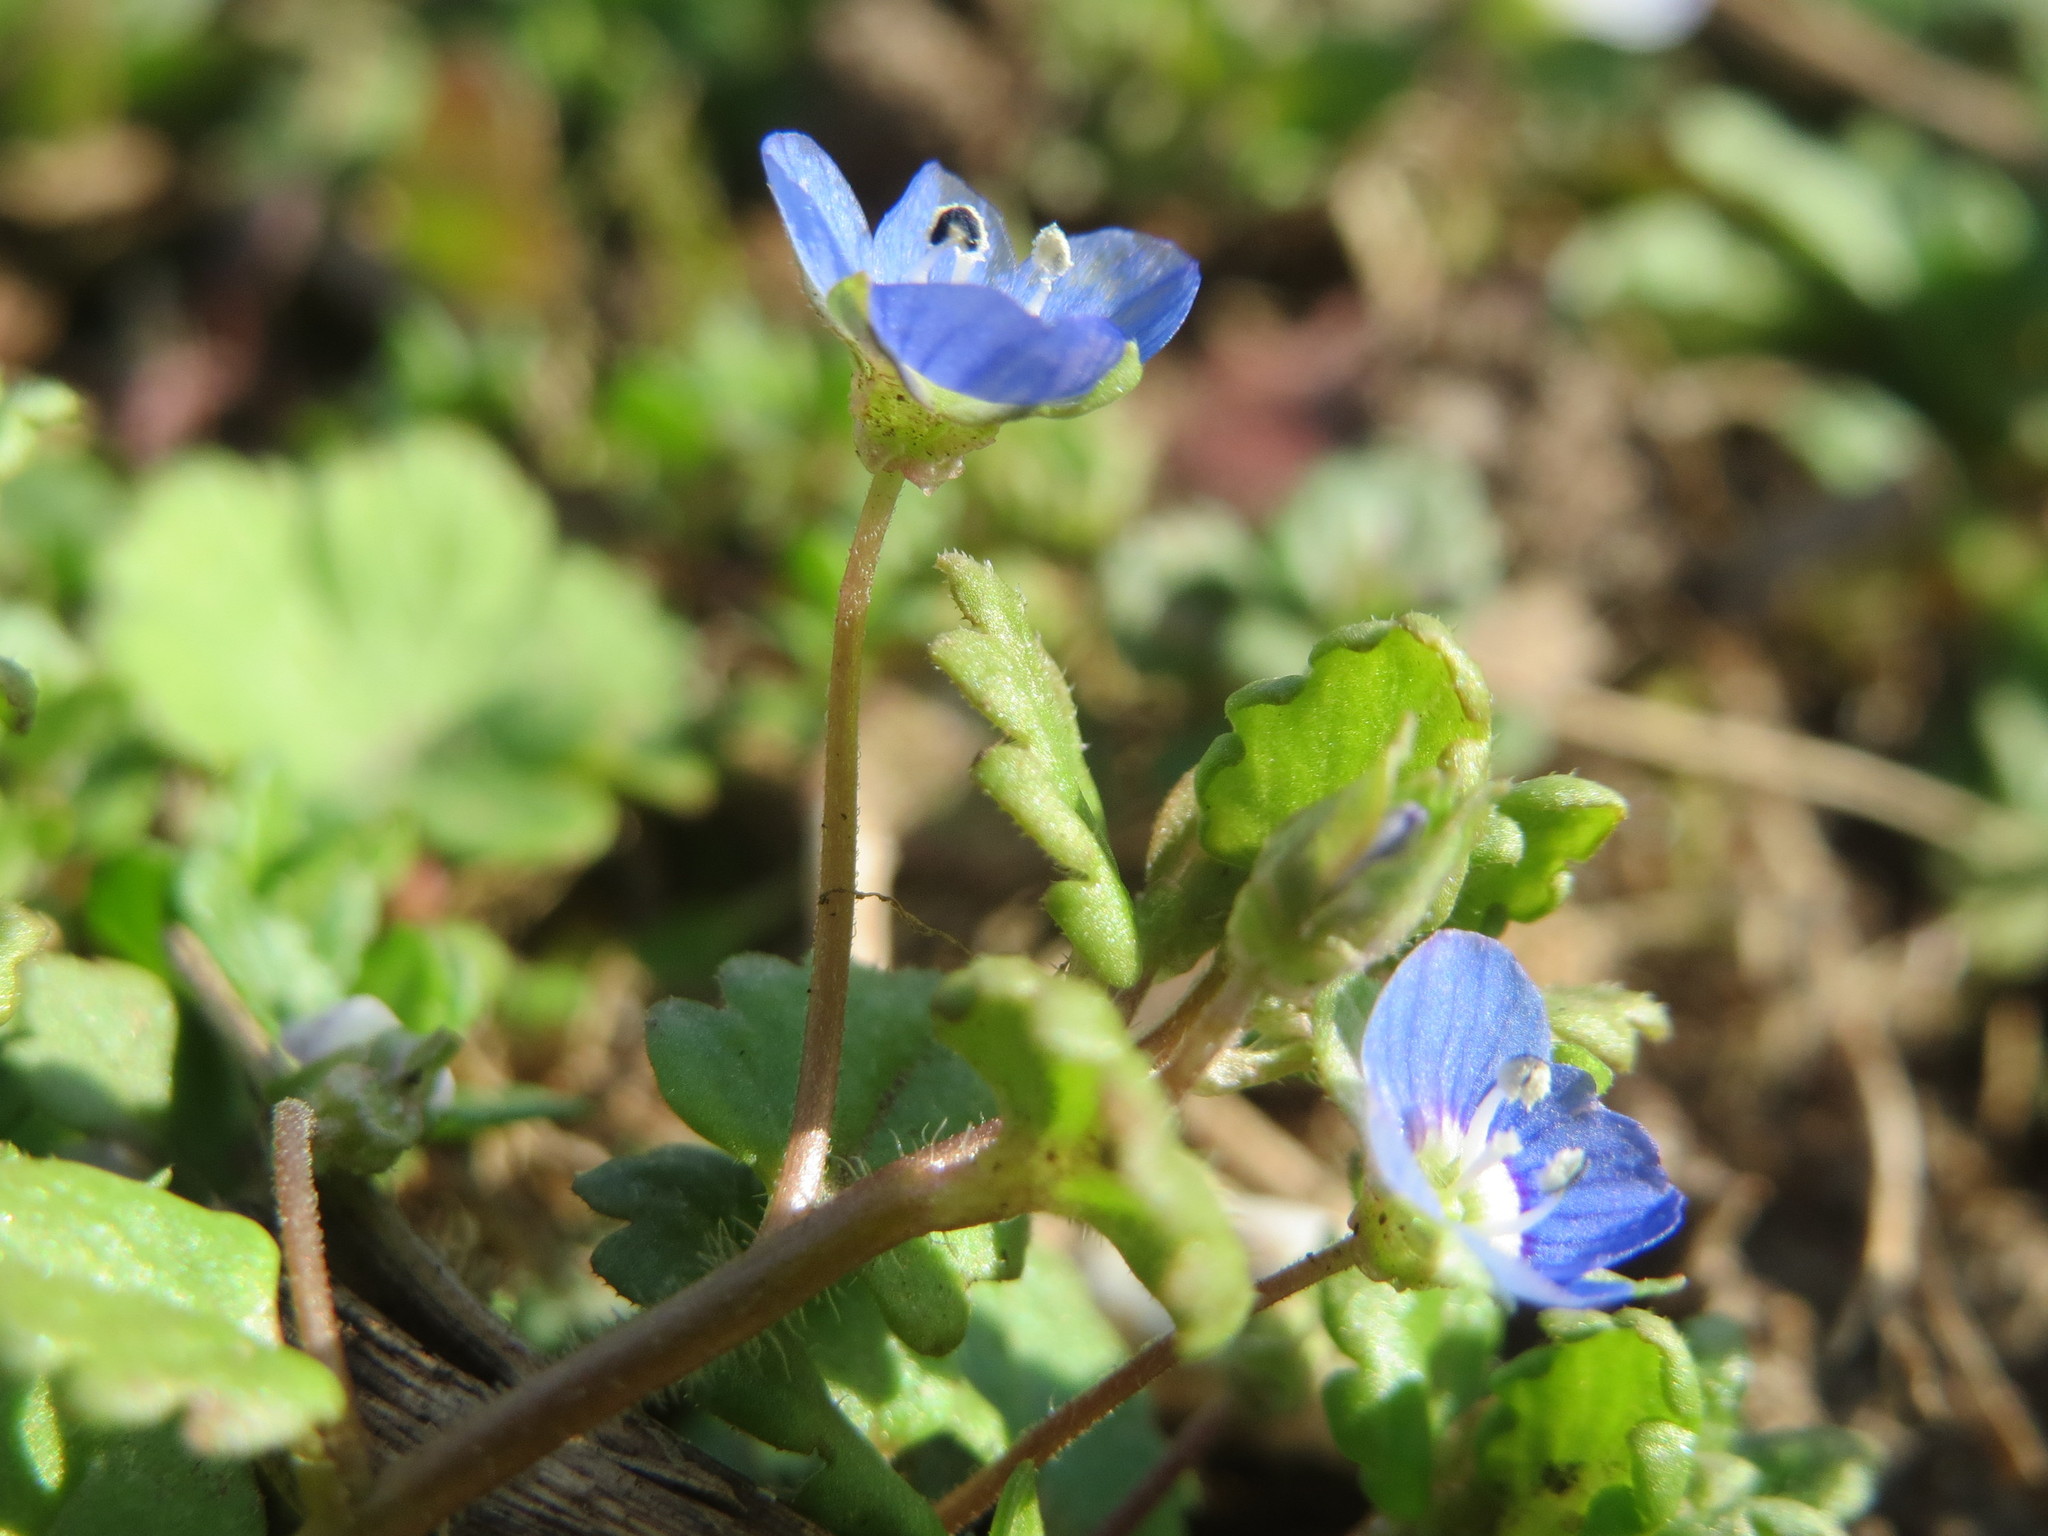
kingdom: Plantae
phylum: Tracheophyta
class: Magnoliopsida
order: Lamiales
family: Plantaginaceae
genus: Veronica
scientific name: Veronica persica
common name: Common field-speedwell
